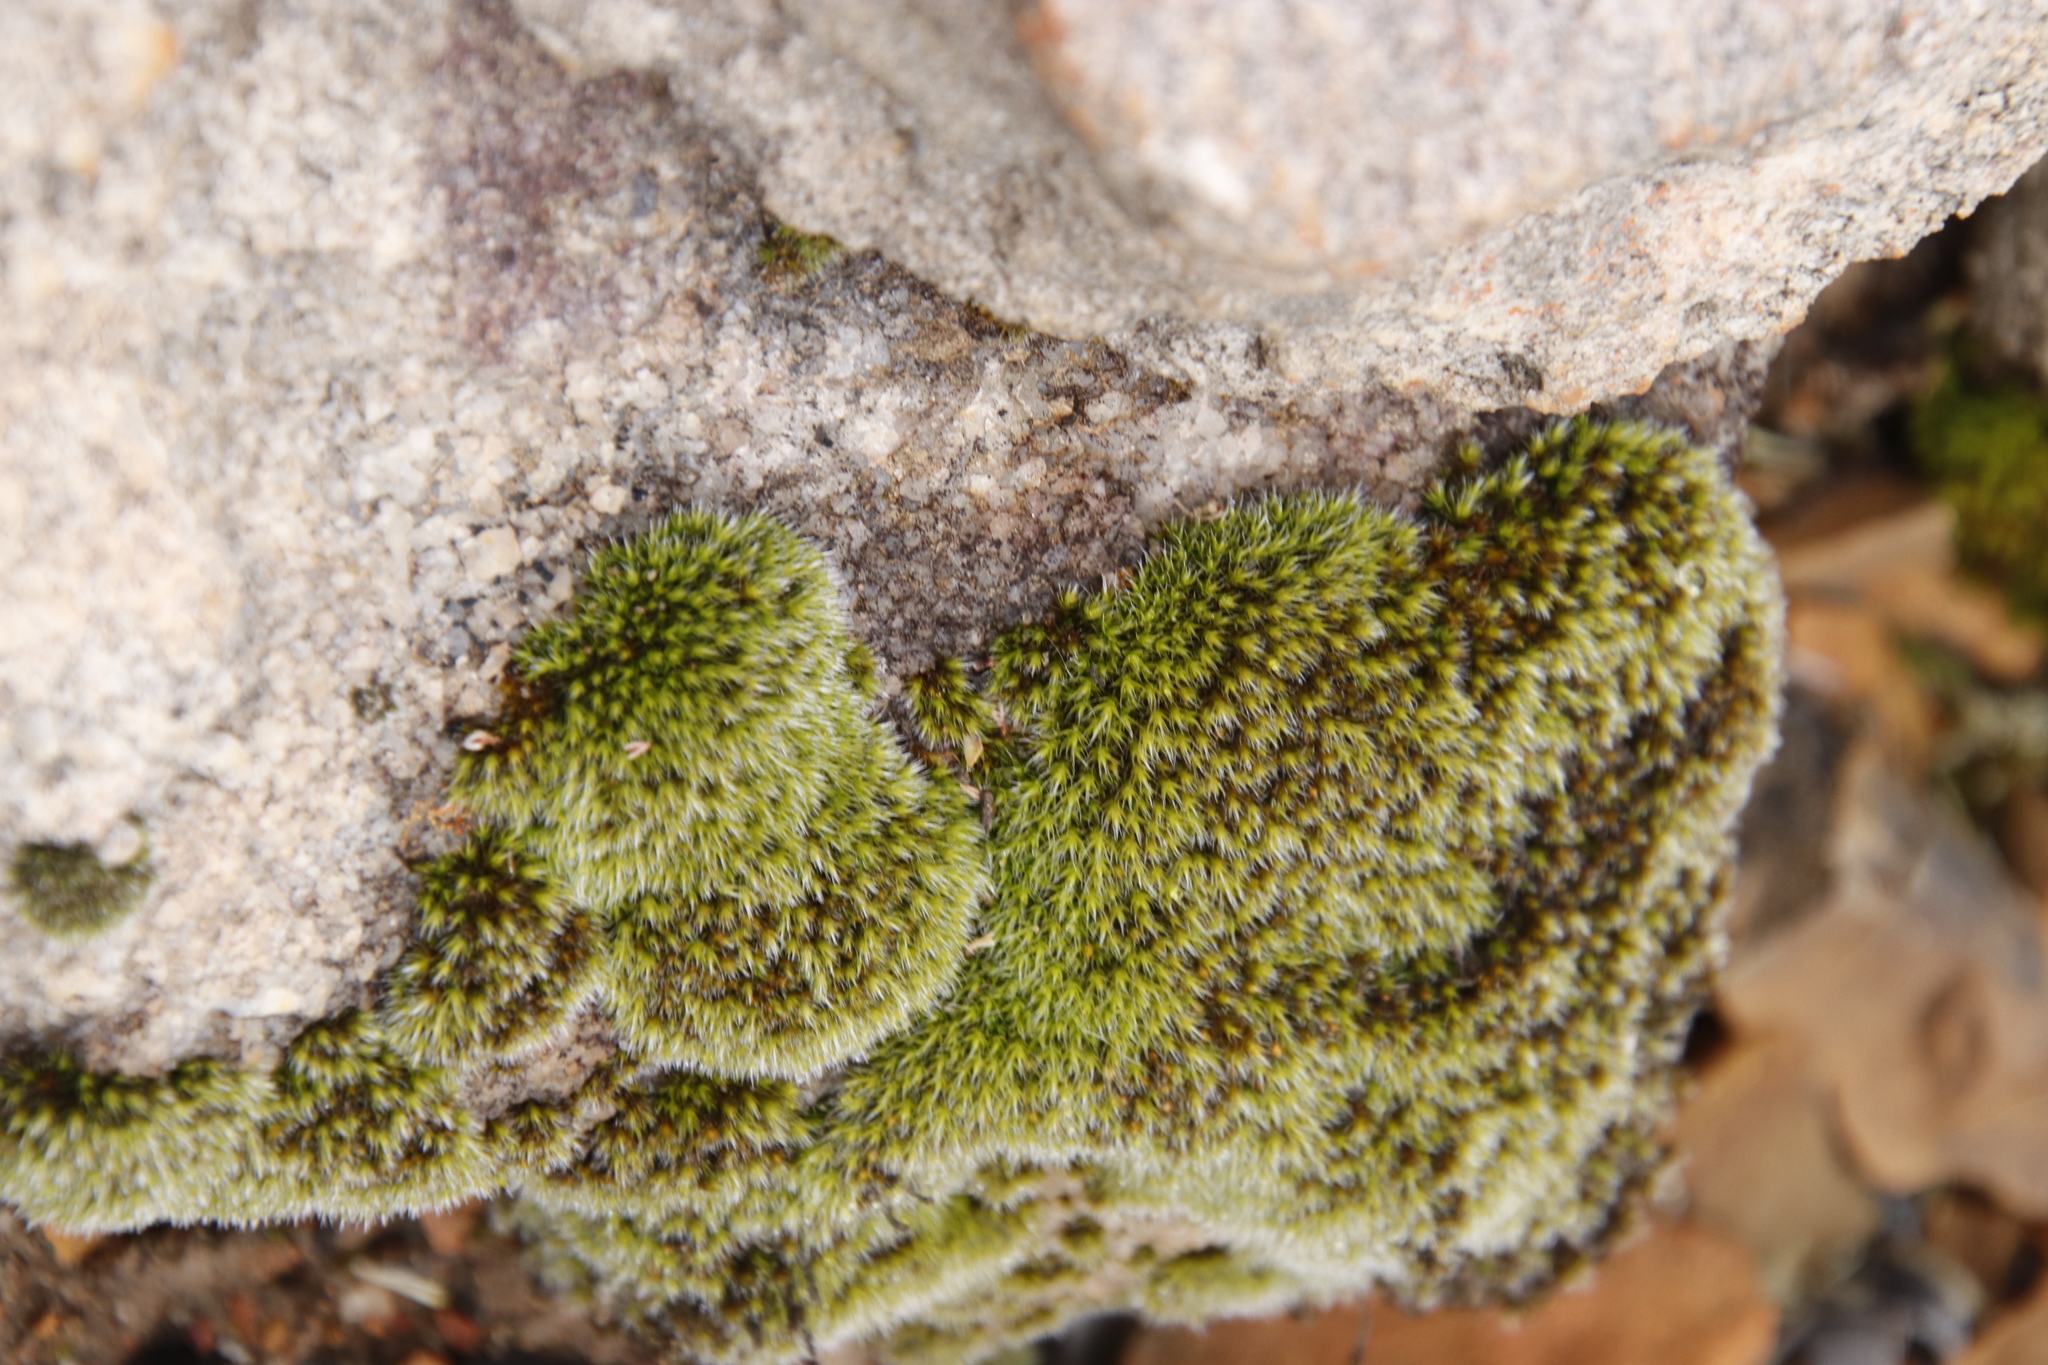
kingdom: Plantae
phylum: Bryophyta
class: Bryopsida
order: Grimmiales
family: Grimmiaceae
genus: Grimmia
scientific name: Grimmia laevigata
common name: Hoary grimmia
